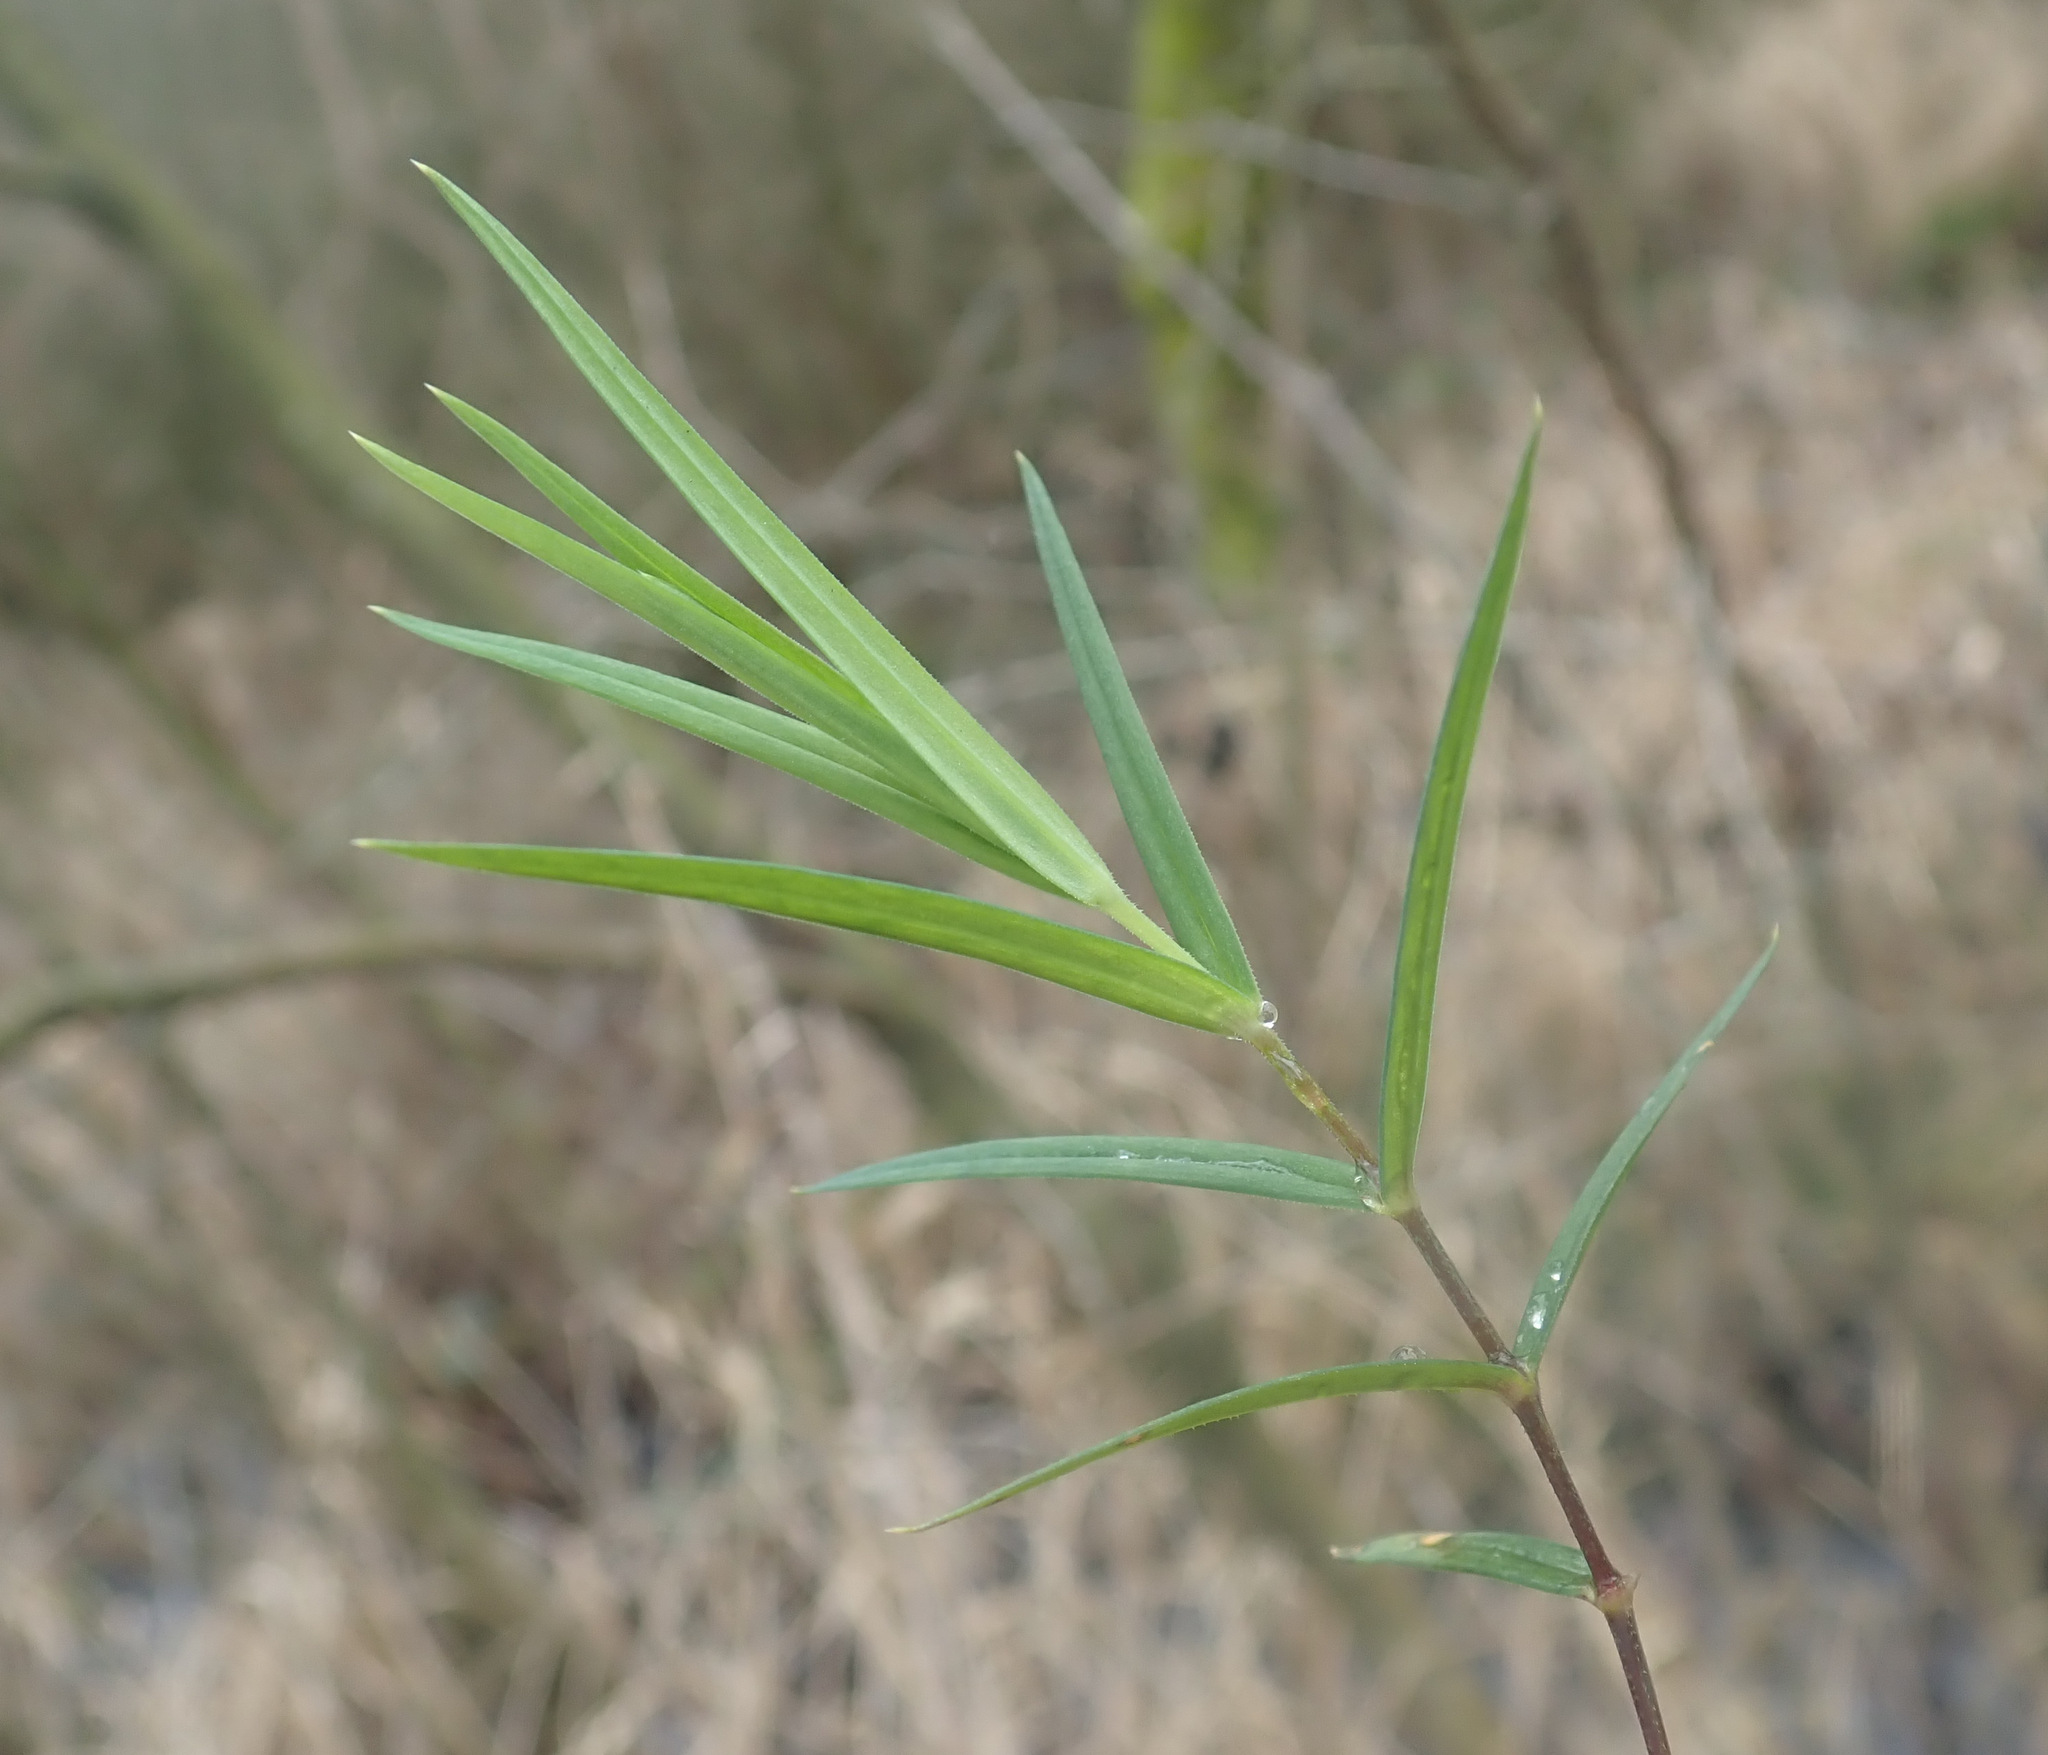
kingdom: Plantae
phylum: Tracheophyta
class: Magnoliopsida
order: Caryophyllales
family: Caryophyllaceae
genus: Rabelera
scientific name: Rabelera holostea
